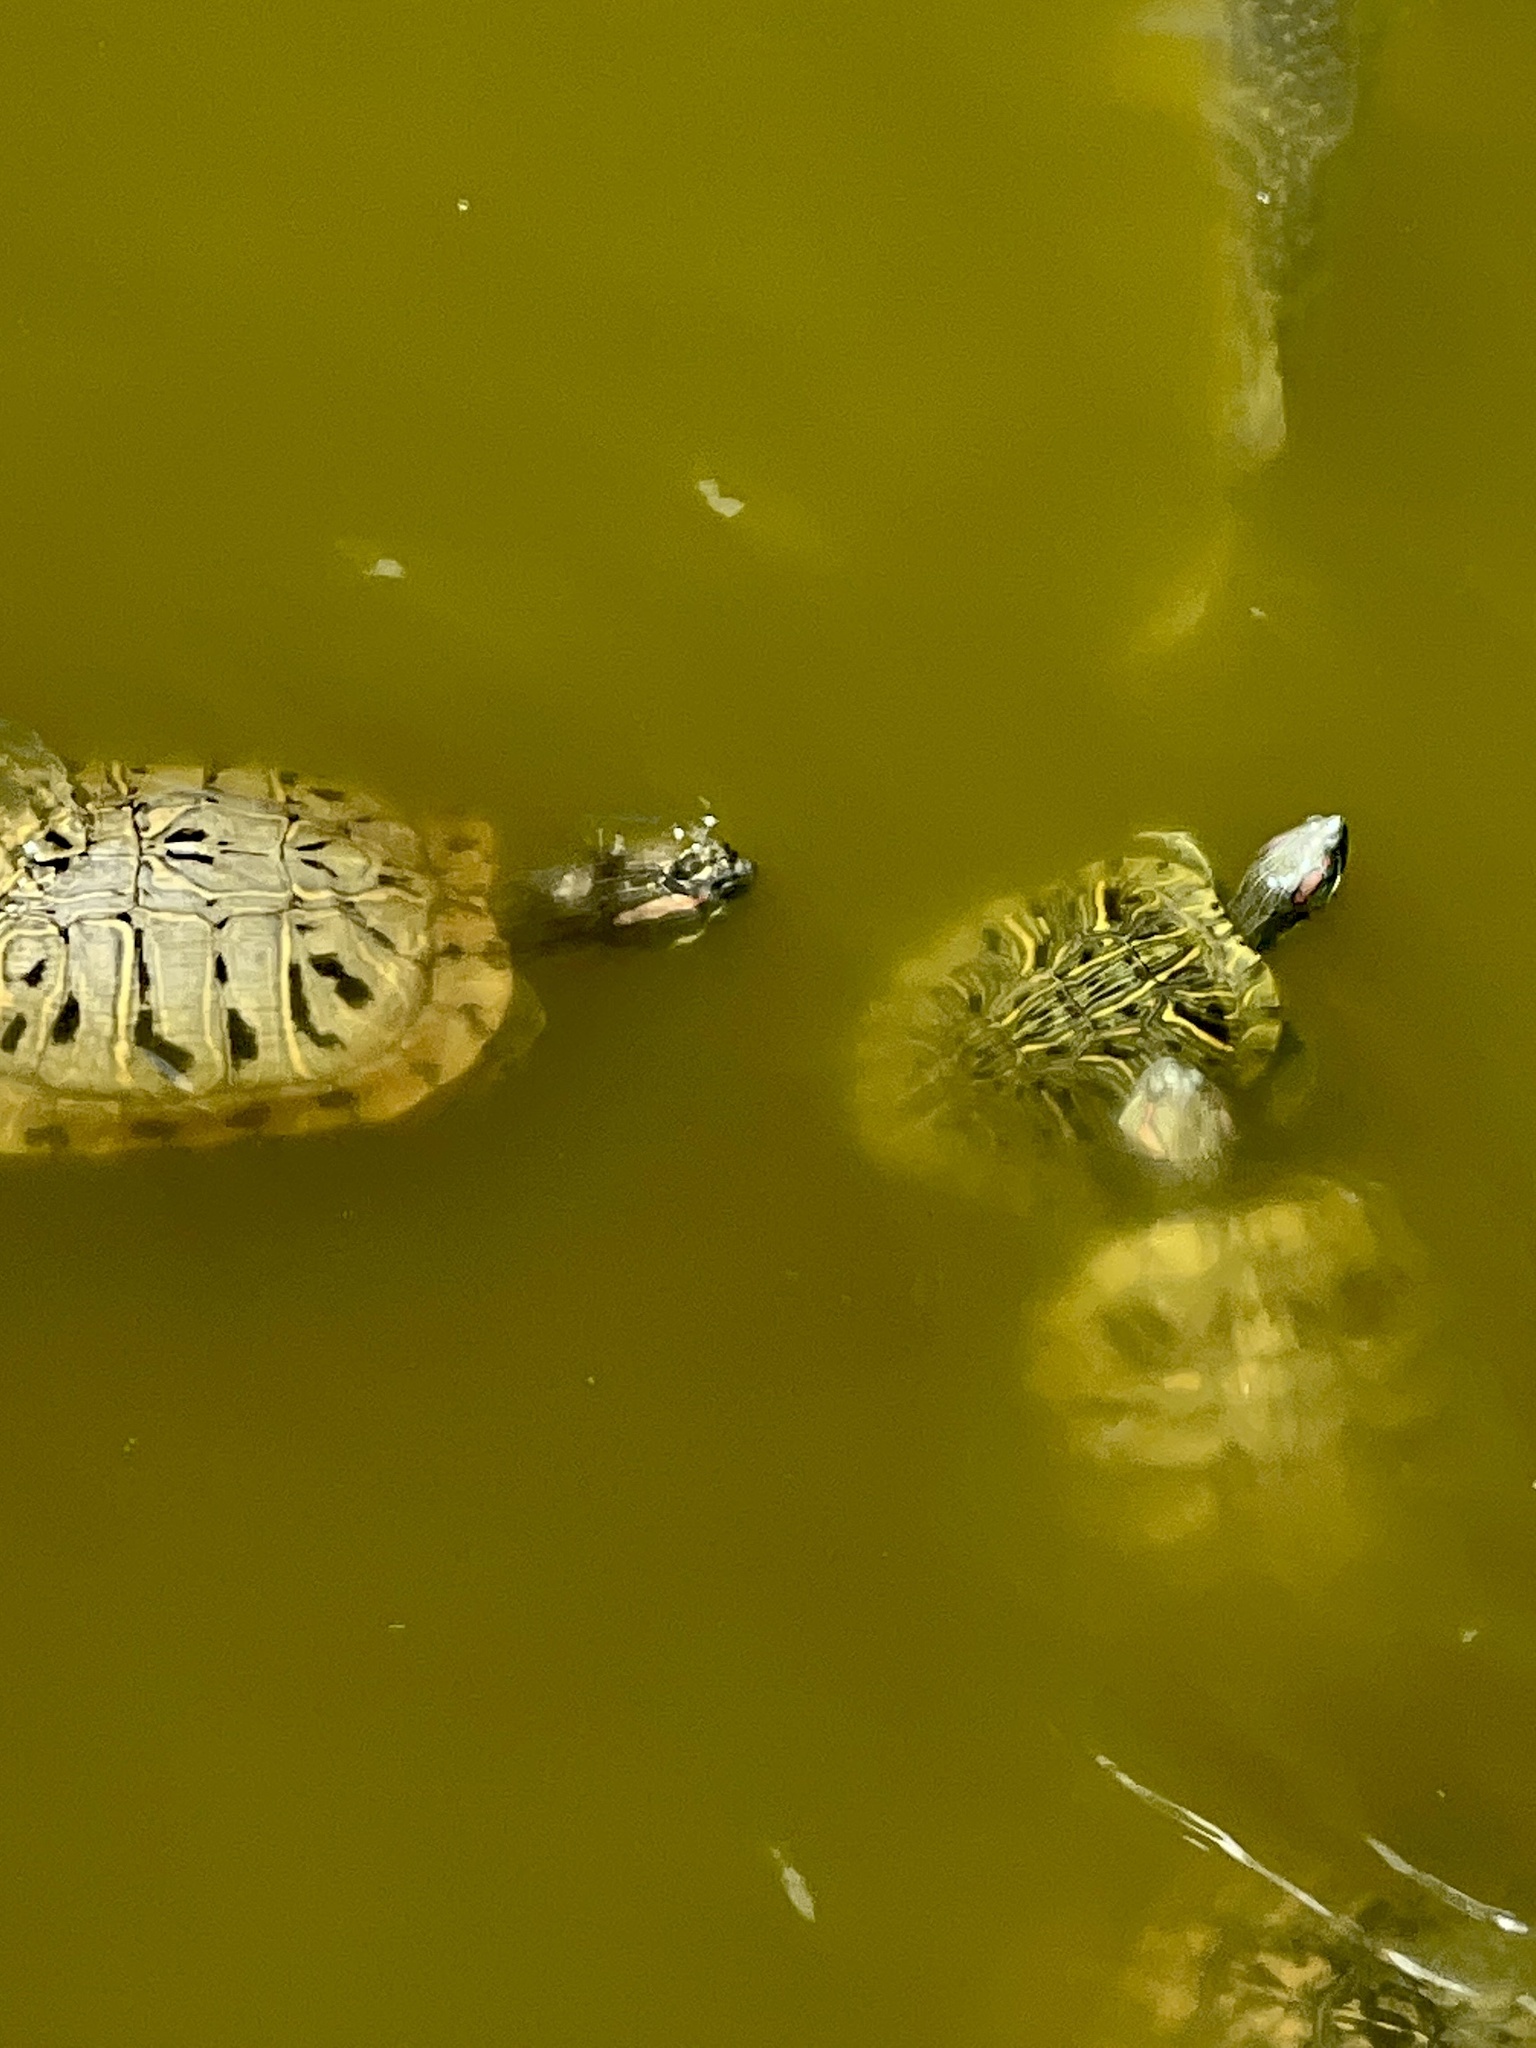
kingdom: Animalia
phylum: Chordata
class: Testudines
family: Emydidae
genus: Trachemys
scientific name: Trachemys scripta
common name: Slider
